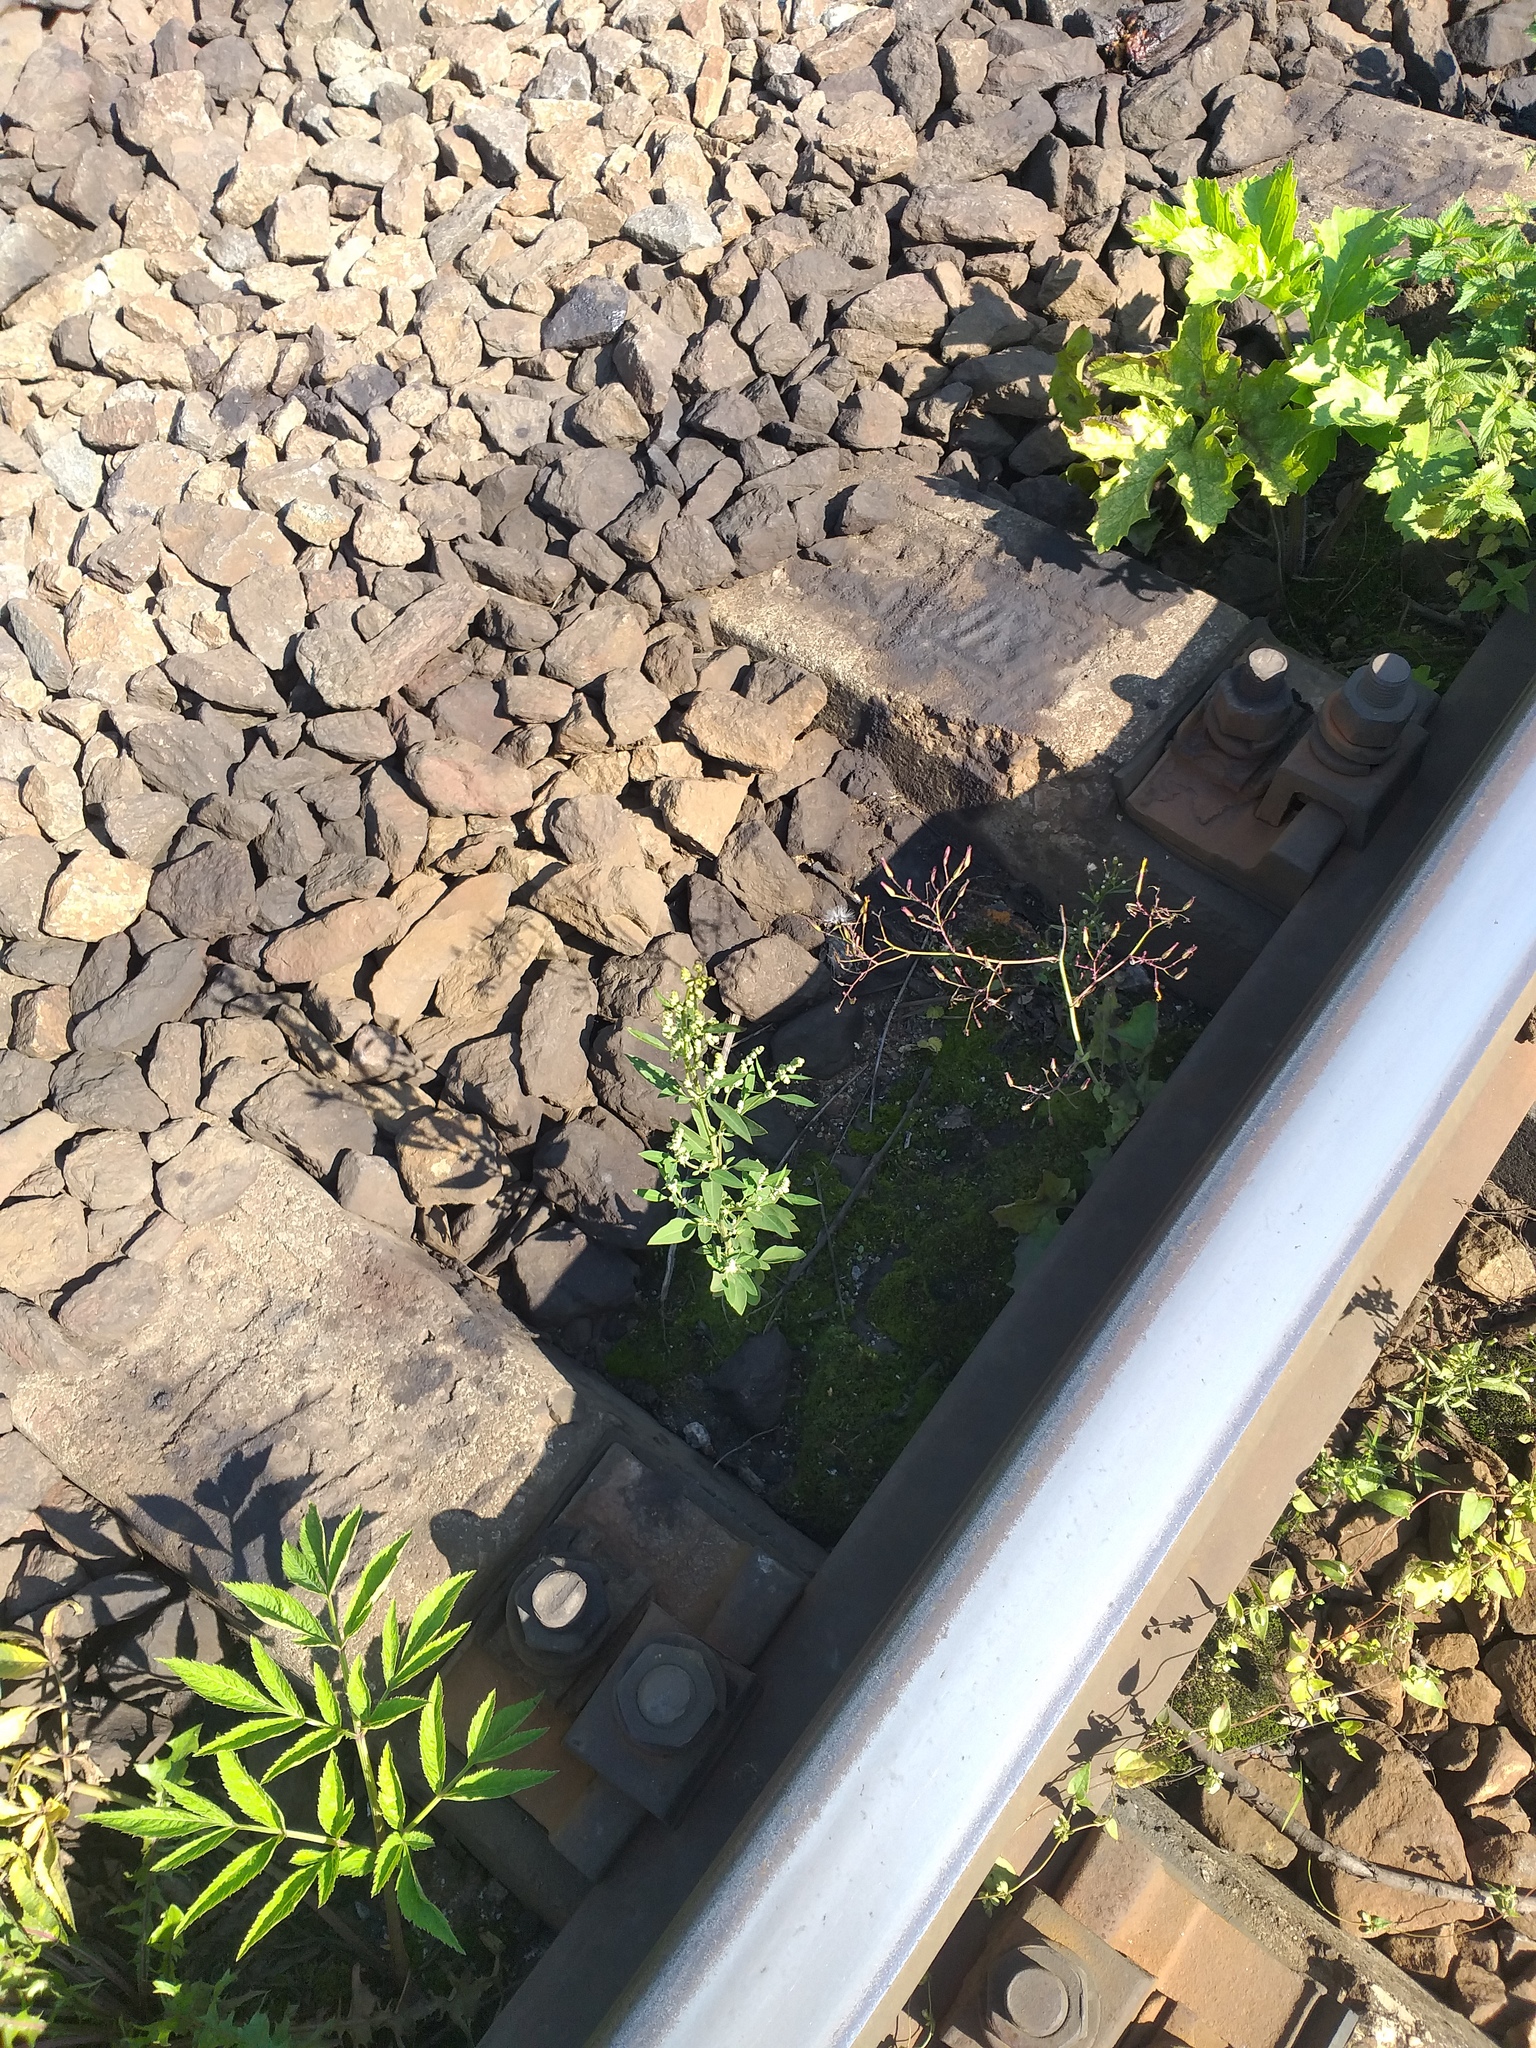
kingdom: Plantae
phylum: Tracheophyta
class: Magnoliopsida
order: Caryophyllales
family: Amaranthaceae
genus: Chenopodium
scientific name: Chenopodium album
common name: Fat-hen
